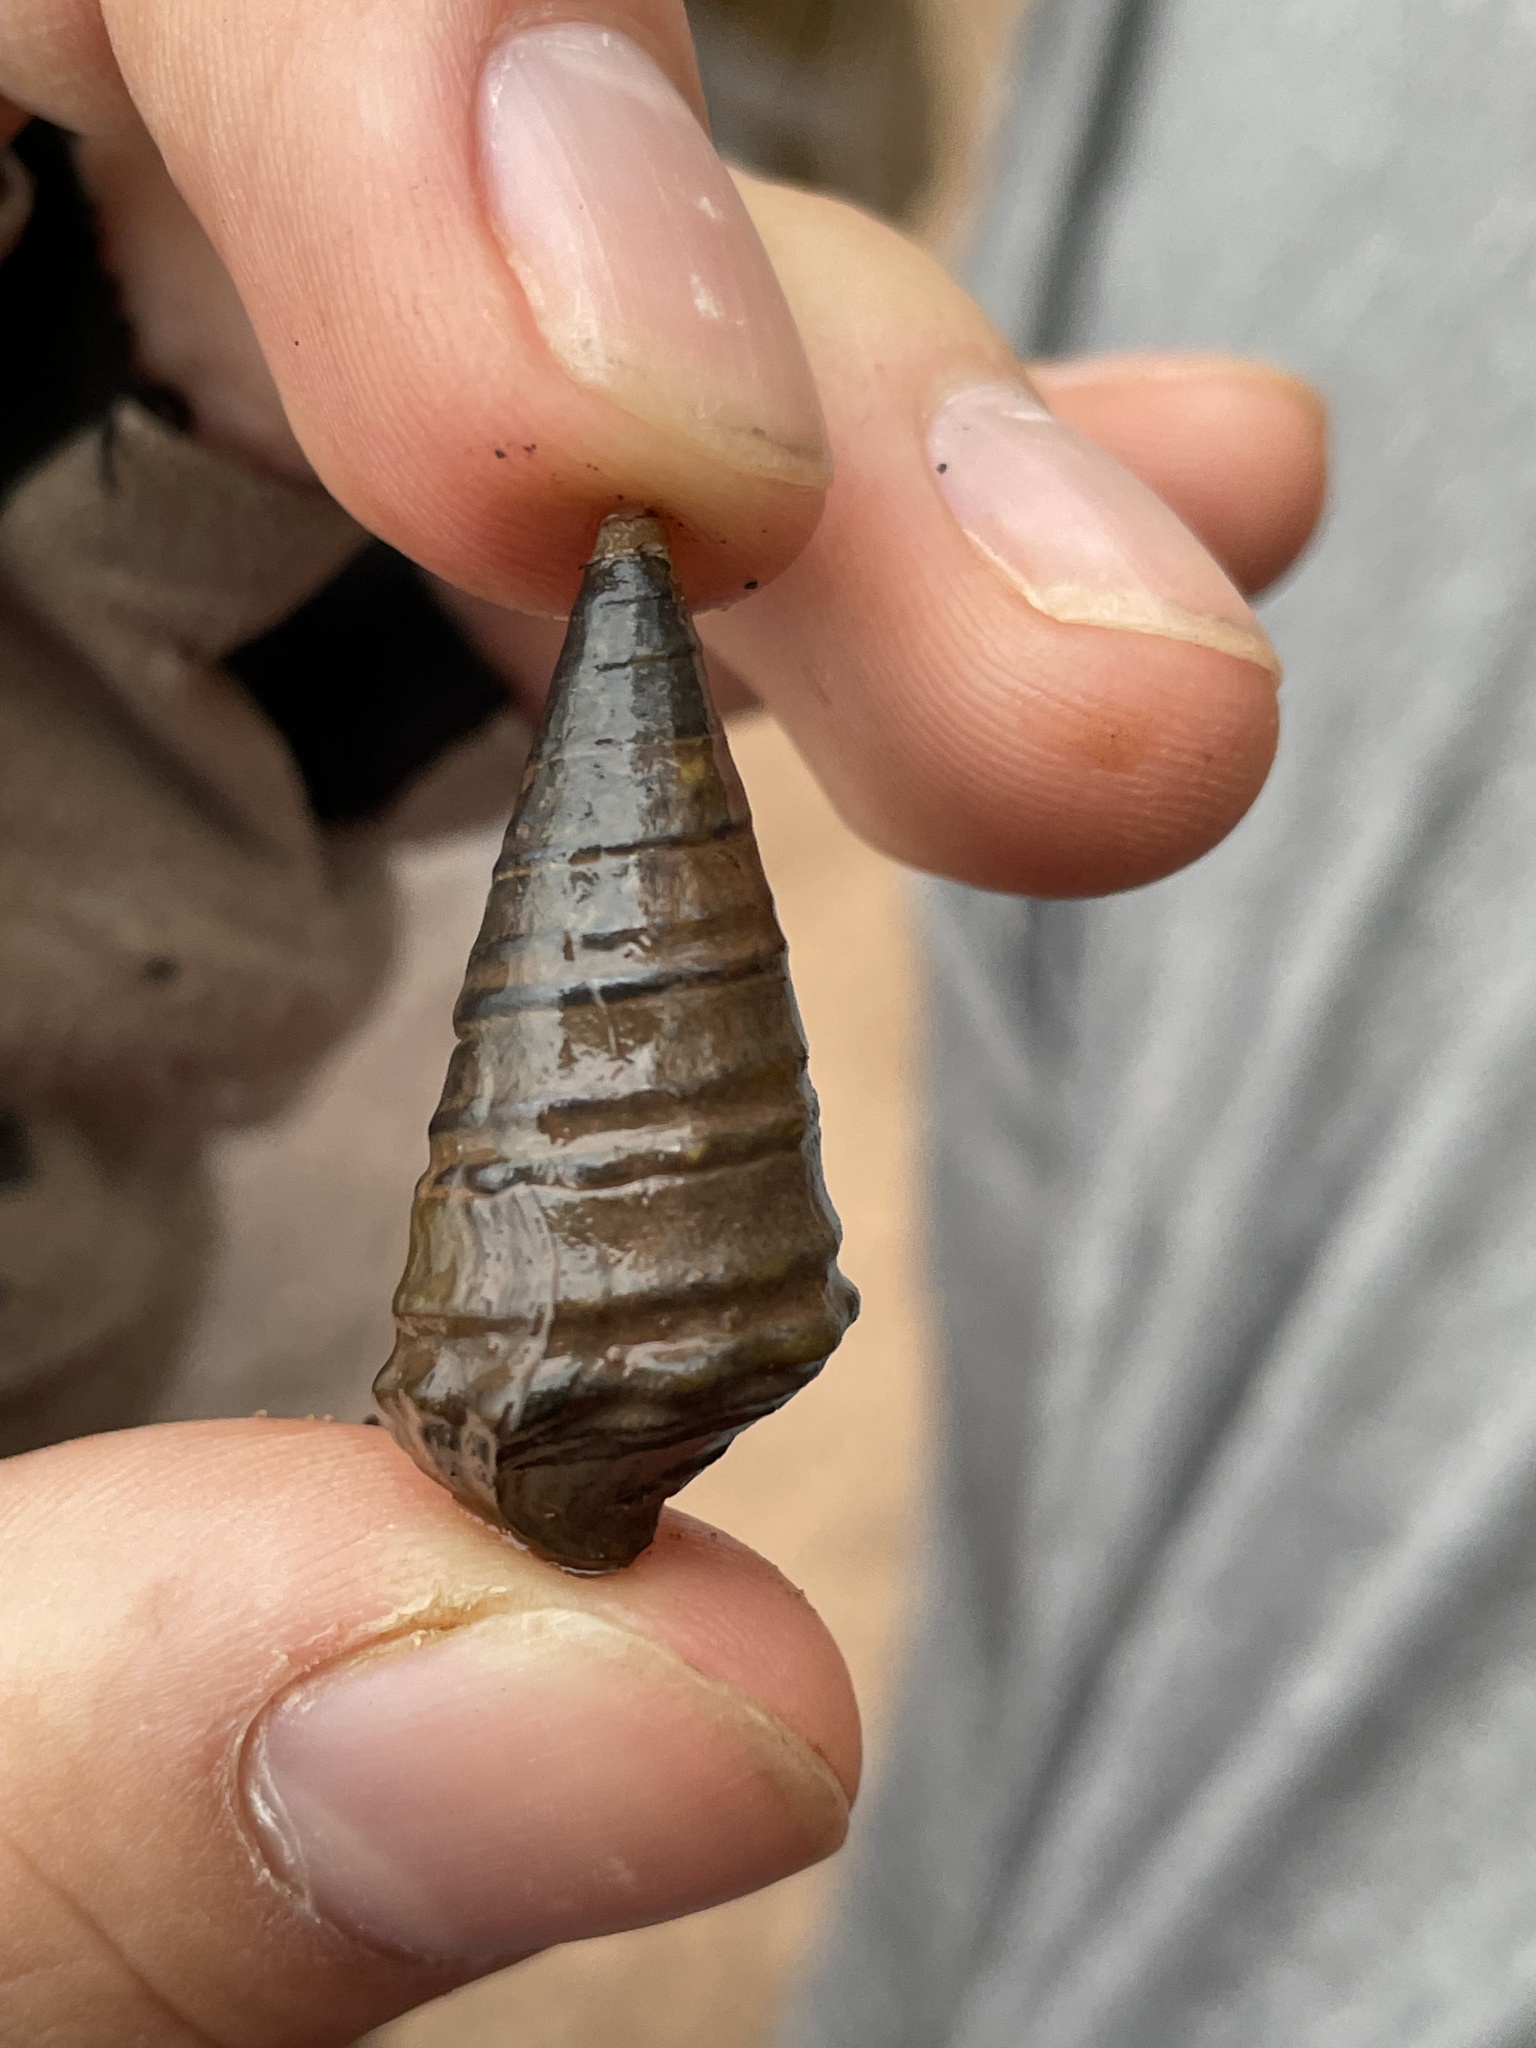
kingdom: Animalia
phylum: Mollusca
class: Gastropoda
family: Pleuroceridae
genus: Pleurocera
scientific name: Pleurocera nobilis
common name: Noble hornsnail
